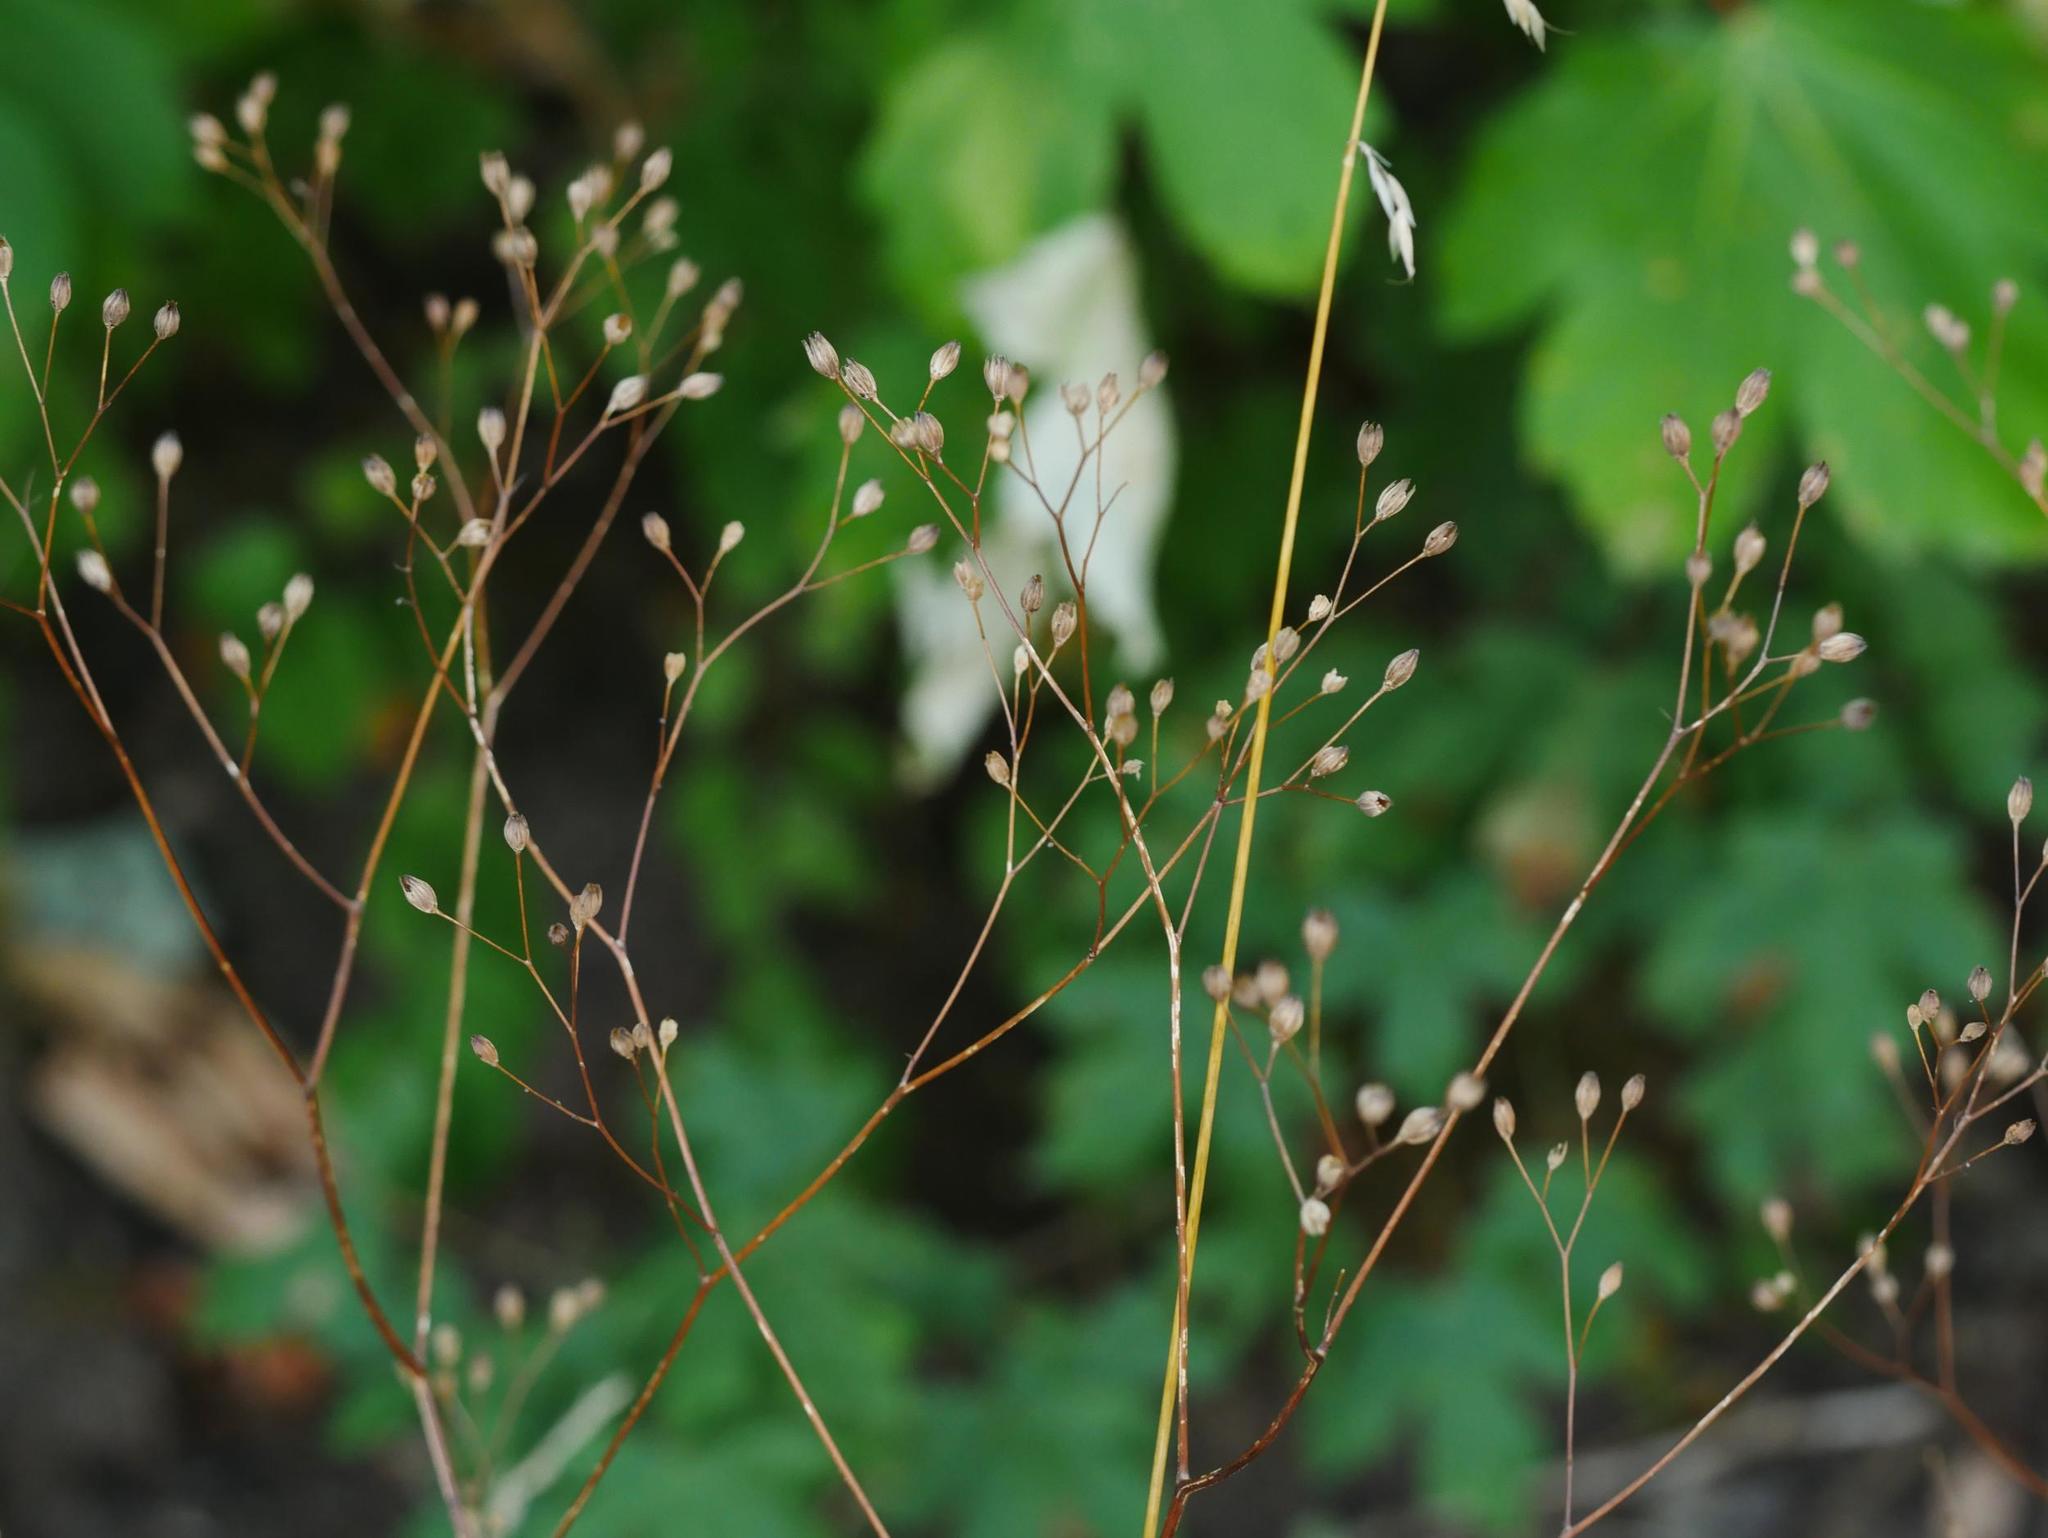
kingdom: Plantae
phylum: Tracheophyta
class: Magnoliopsida
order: Asterales
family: Asteraceae
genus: Lapsana
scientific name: Lapsana communis
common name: Nipplewort
